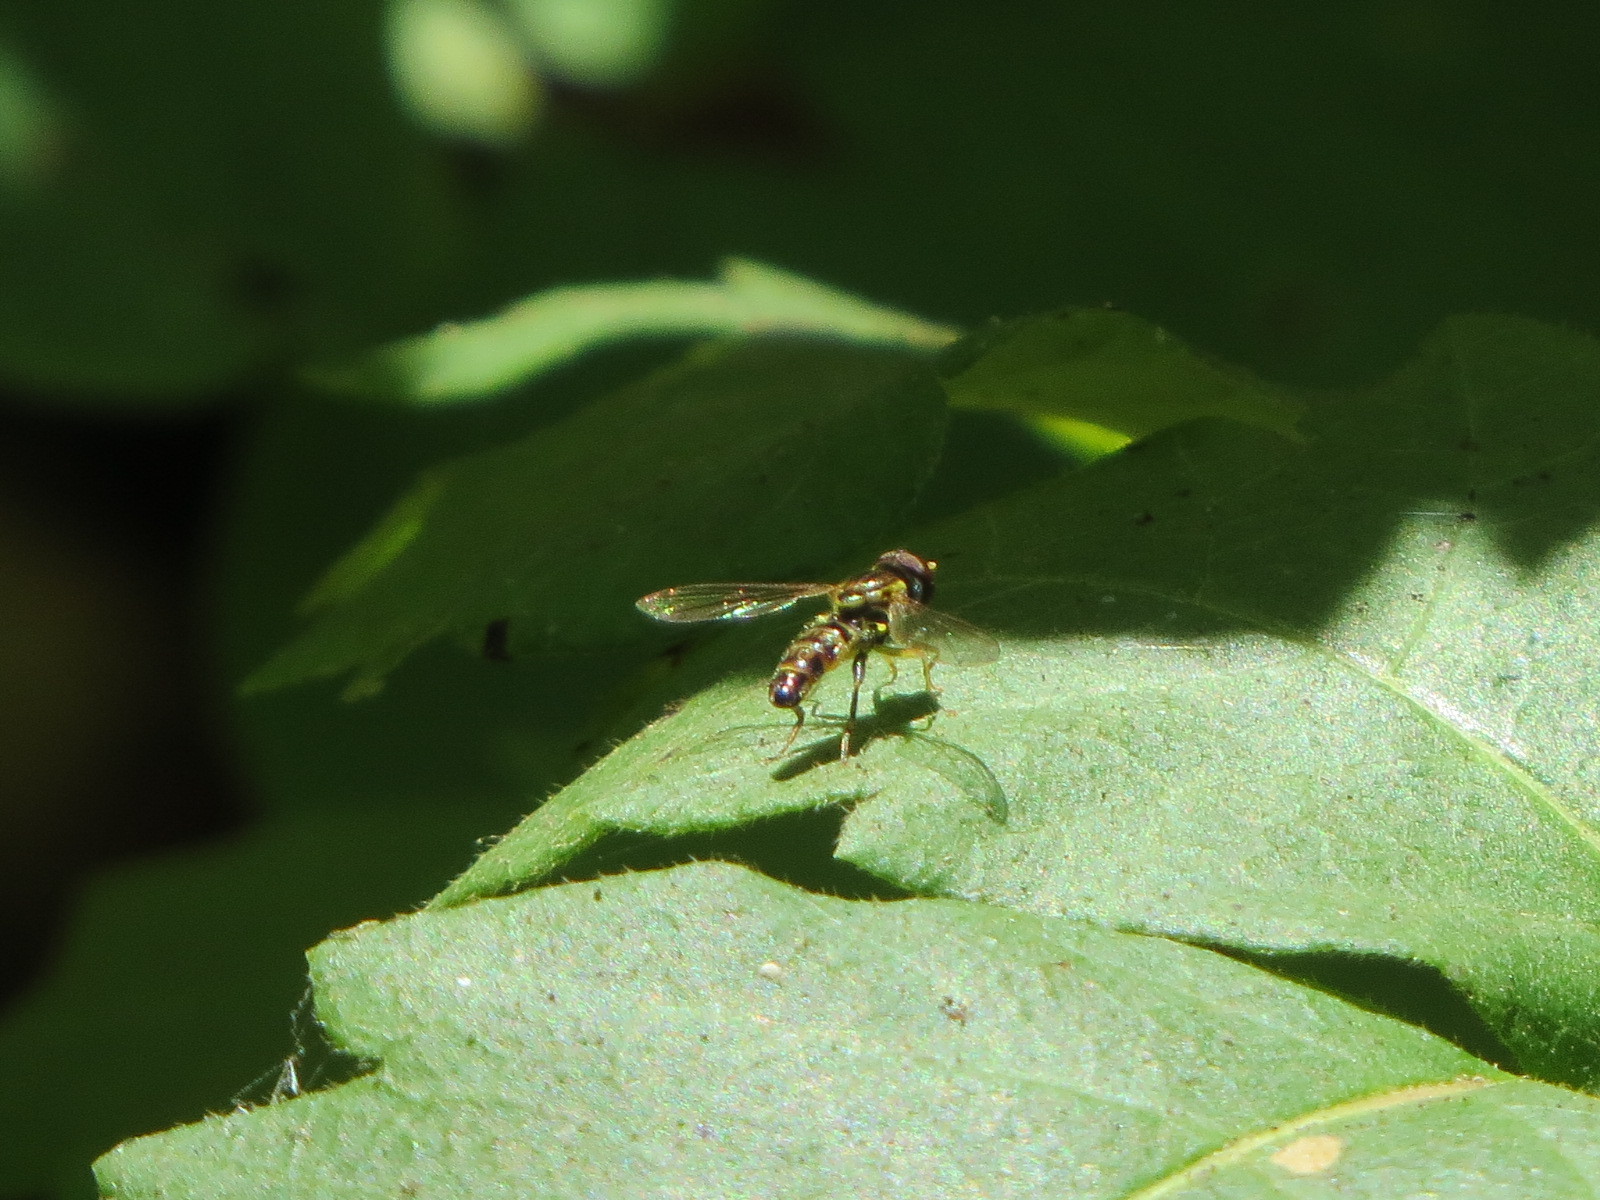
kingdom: Animalia
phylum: Arthropoda
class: Insecta
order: Diptera
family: Syrphidae
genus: Toxomerus
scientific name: Toxomerus occidentalis
